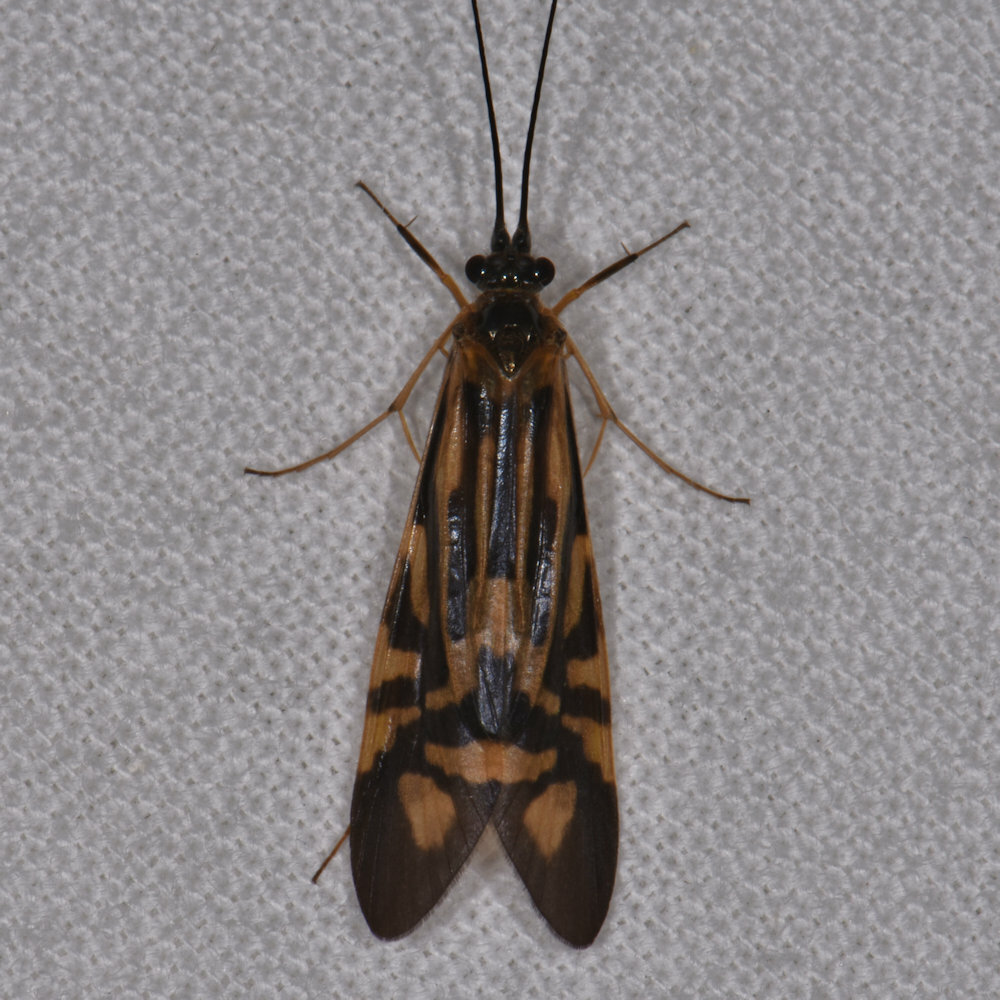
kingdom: Animalia
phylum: Arthropoda
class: Insecta
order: Trichoptera
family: Hydropsychidae
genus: Macrostemum
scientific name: Macrostemum zebratum
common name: Zebra caddisfly
